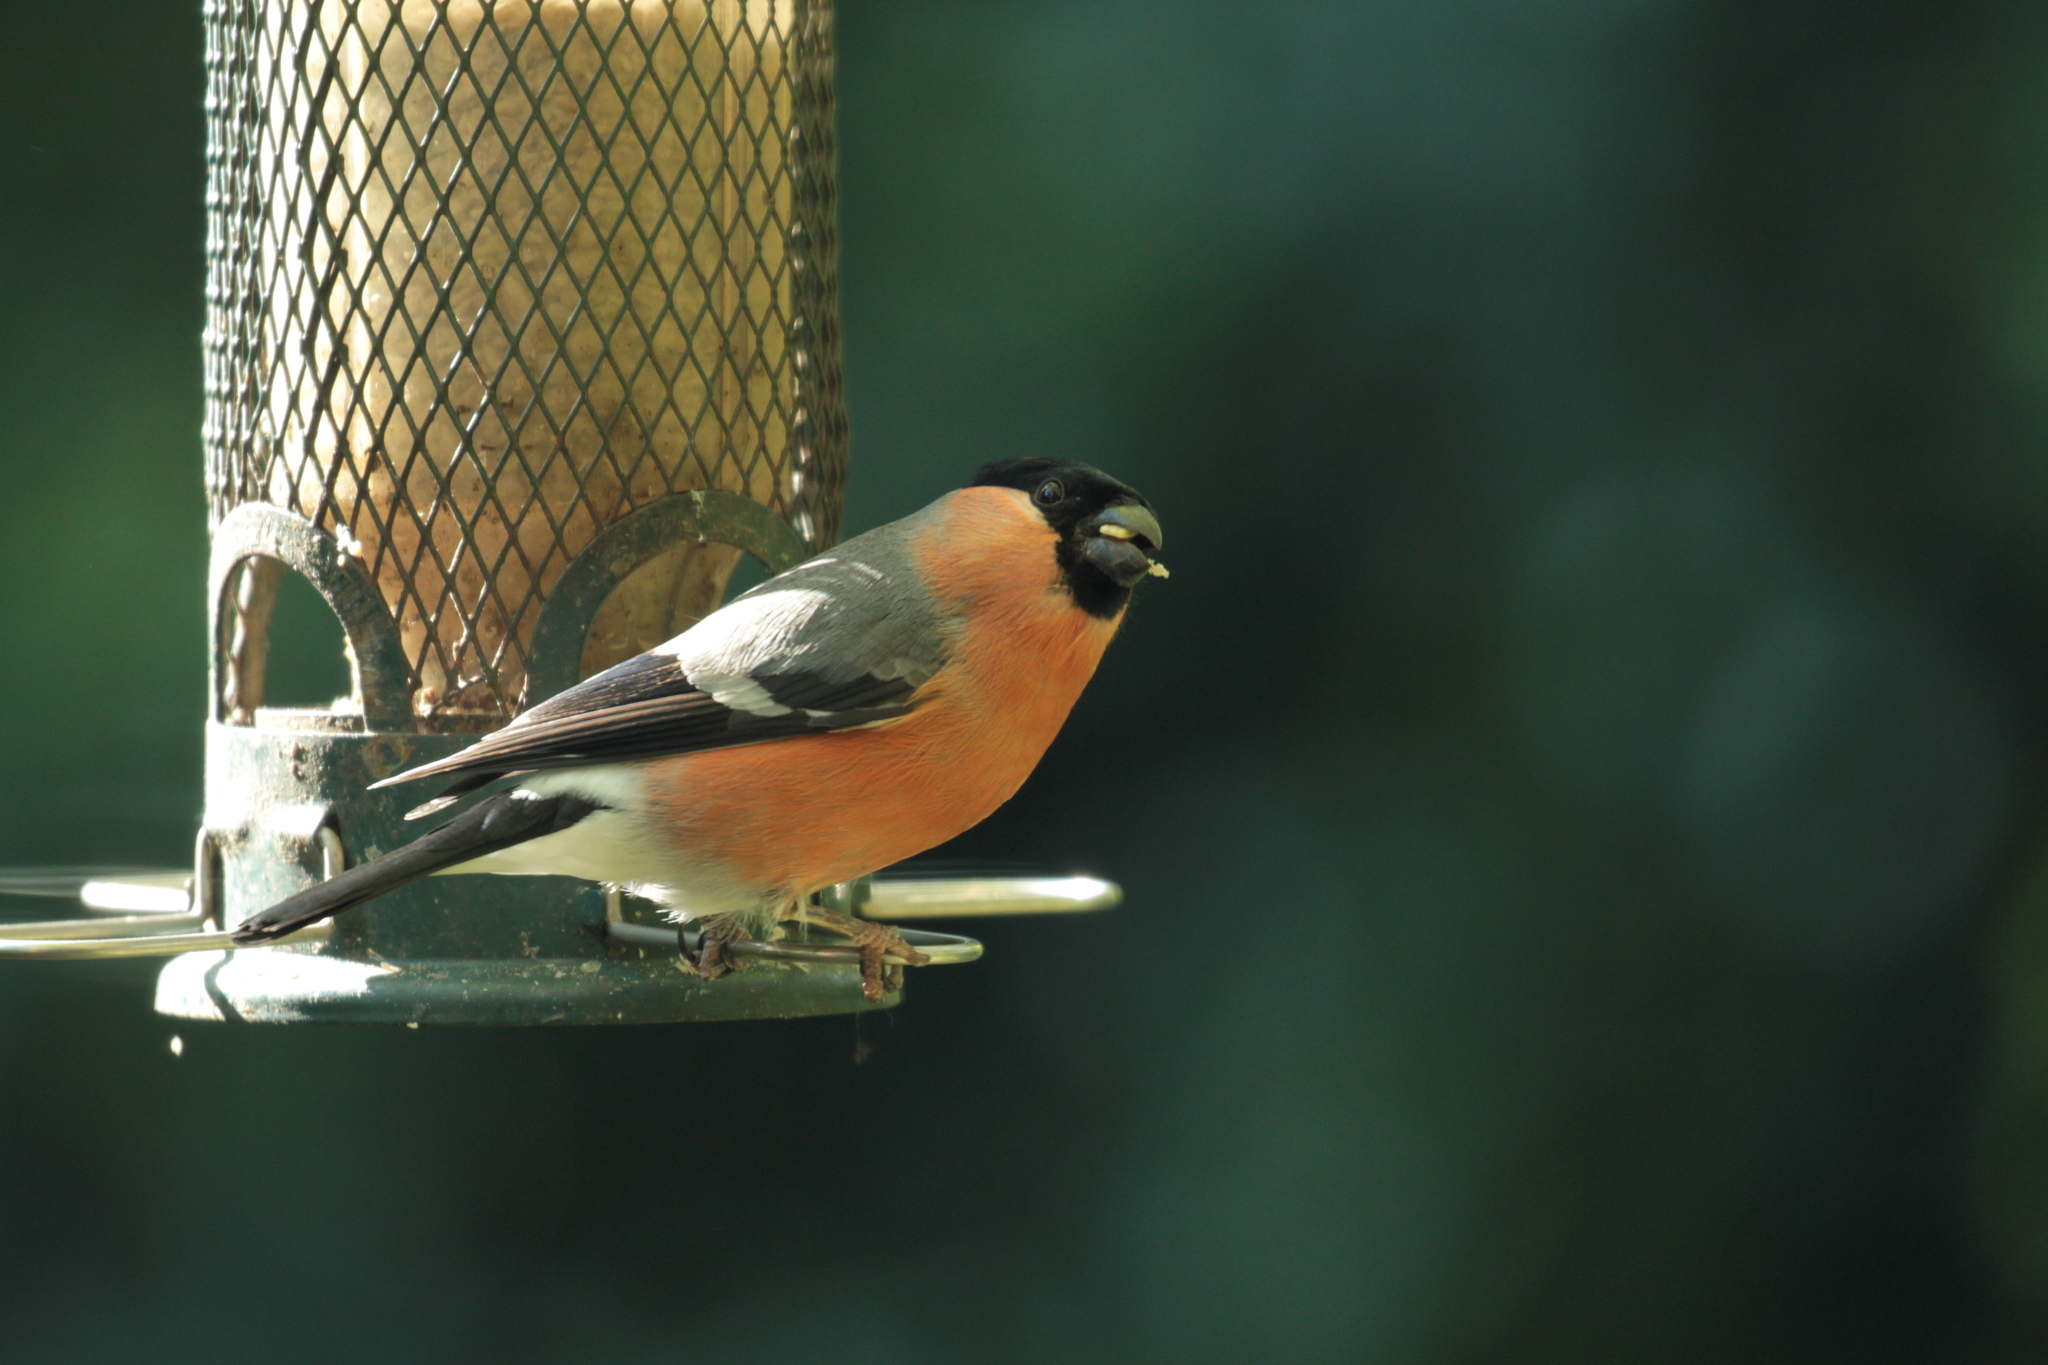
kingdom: Animalia
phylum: Chordata
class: Aves
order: Passeriformes
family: Fringillidae
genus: Pyrrhula
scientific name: Pyrrhula pyrrhula
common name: Eurasian bullfinch
